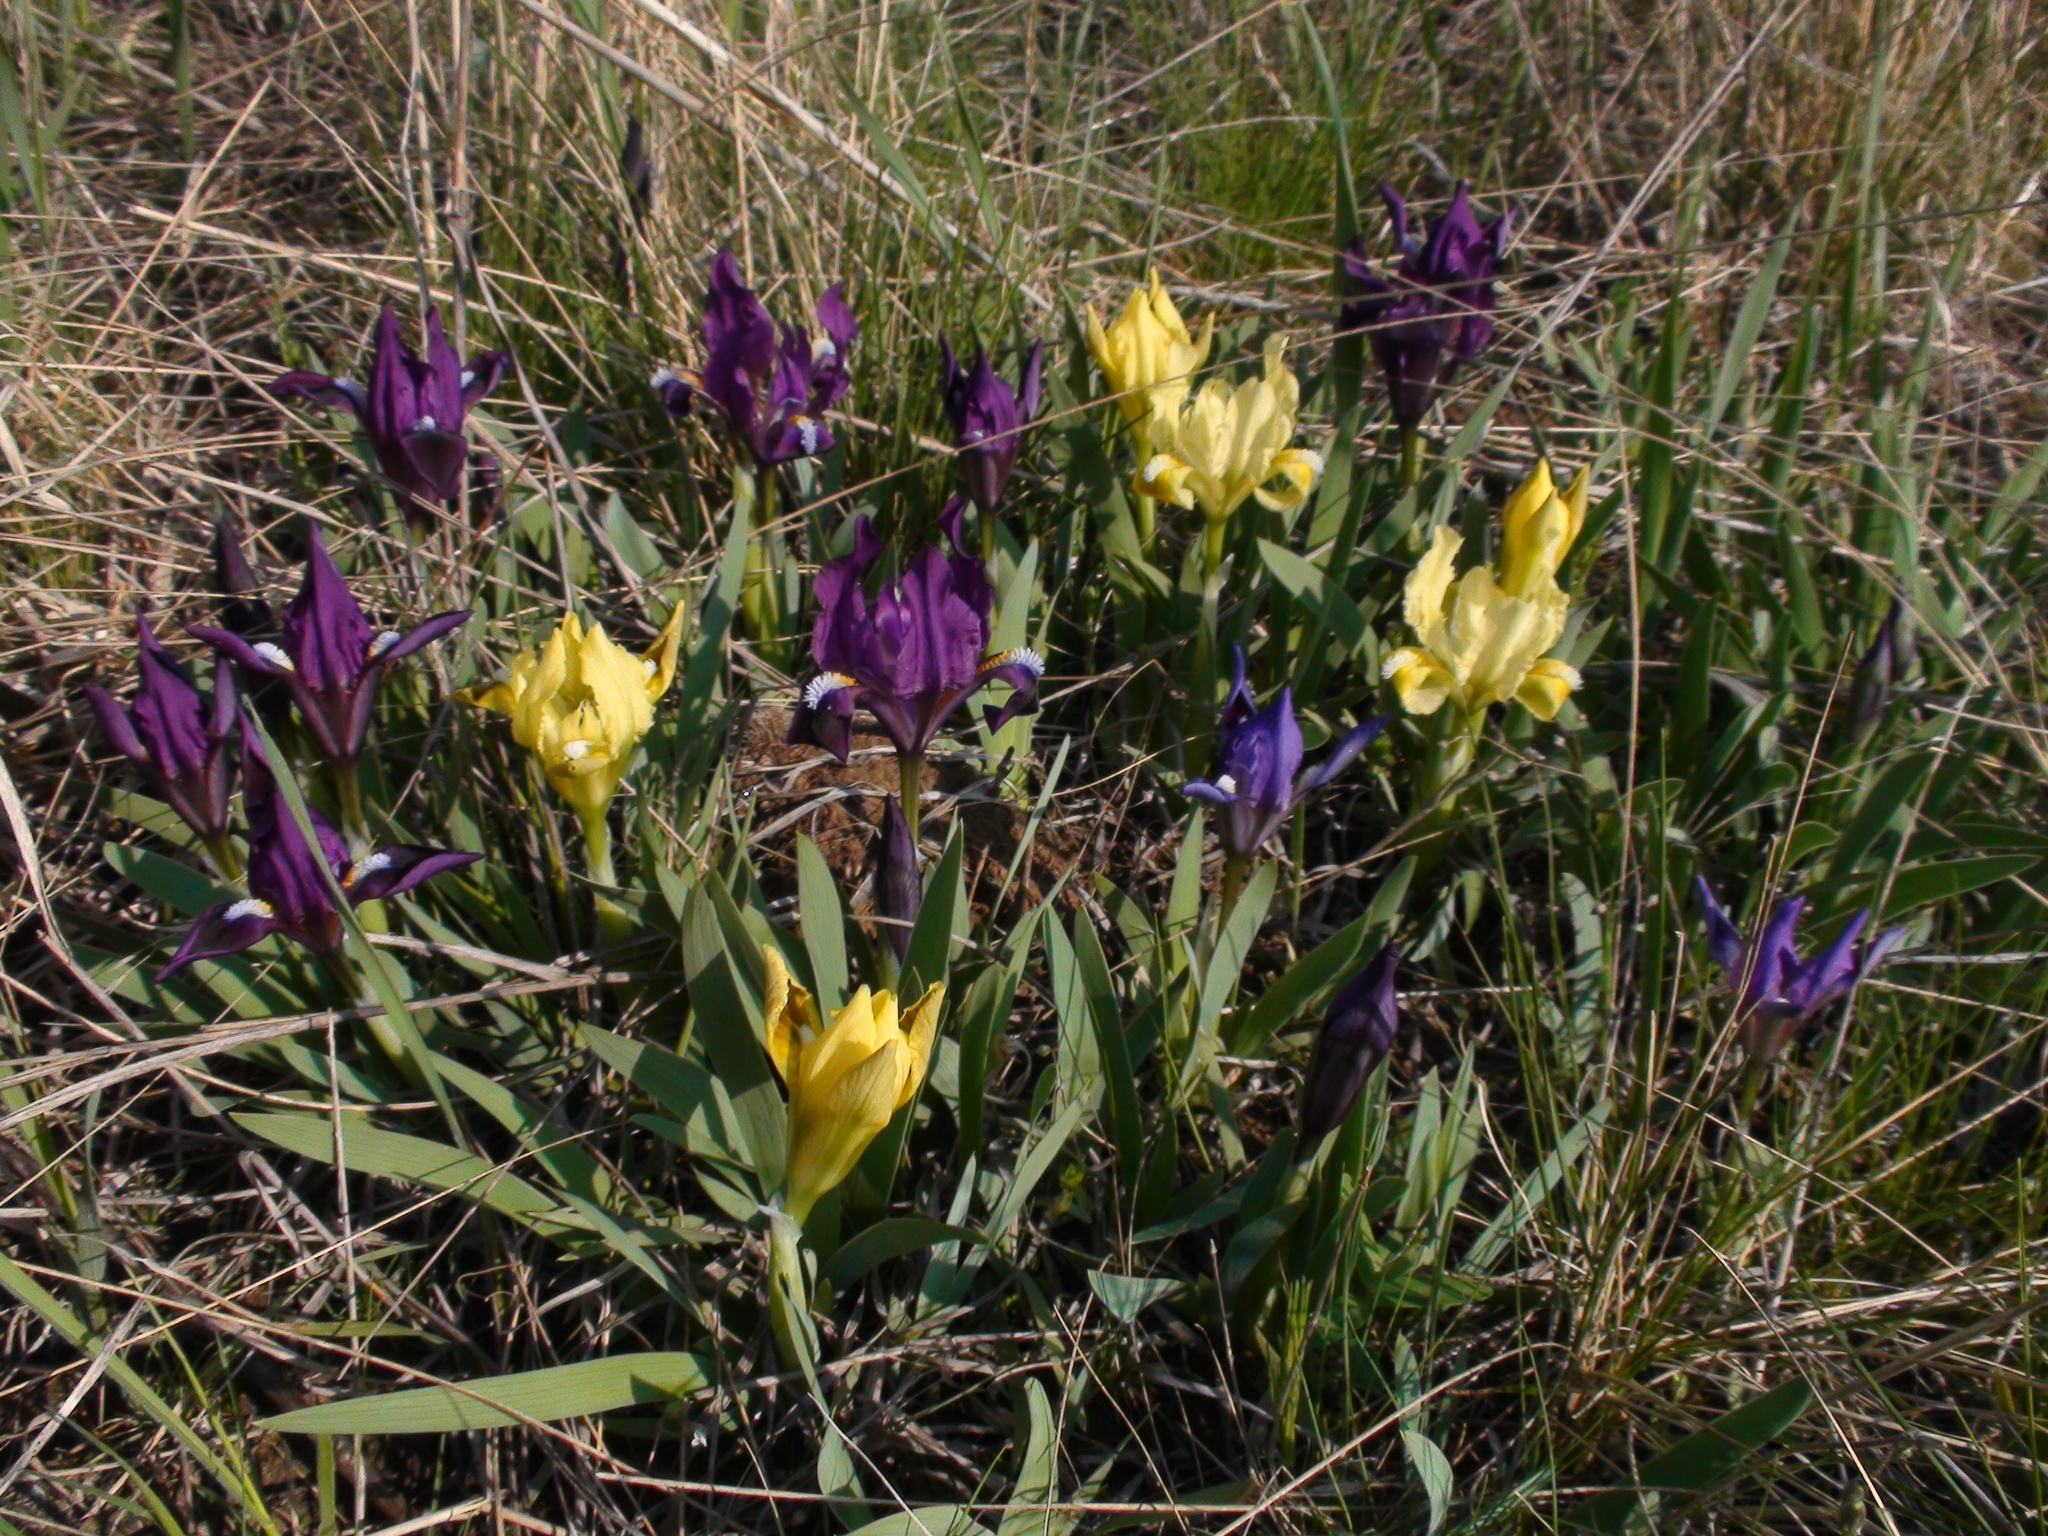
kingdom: Plantae
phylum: Tracheophyta
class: Liliopsida
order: Asparagales
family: Iridaceae
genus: Iris
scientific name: Iris pumila
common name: Dwarf iris
